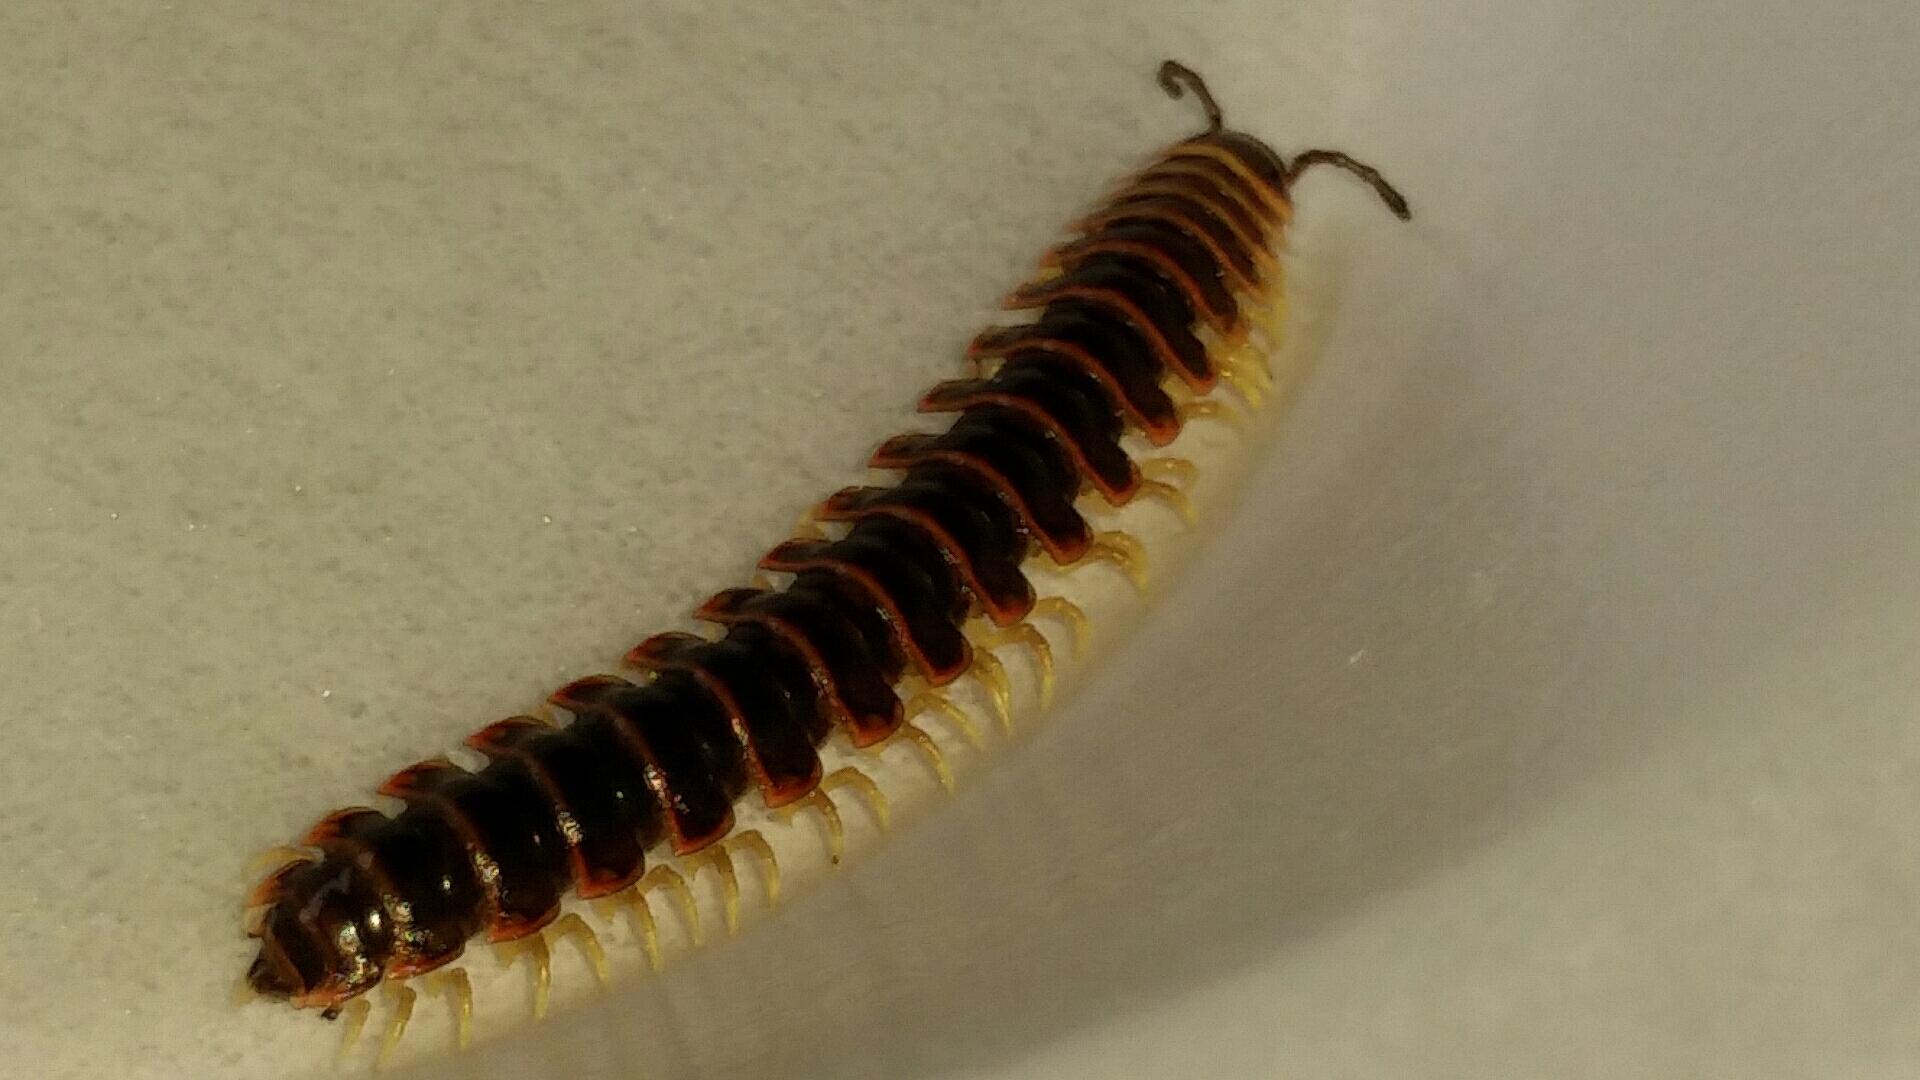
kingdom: Animalia
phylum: Arthropoda
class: Diplopoda
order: Polydesmida
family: Xystodesmidae
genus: Pleuroloma
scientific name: Pleuroloma cala
